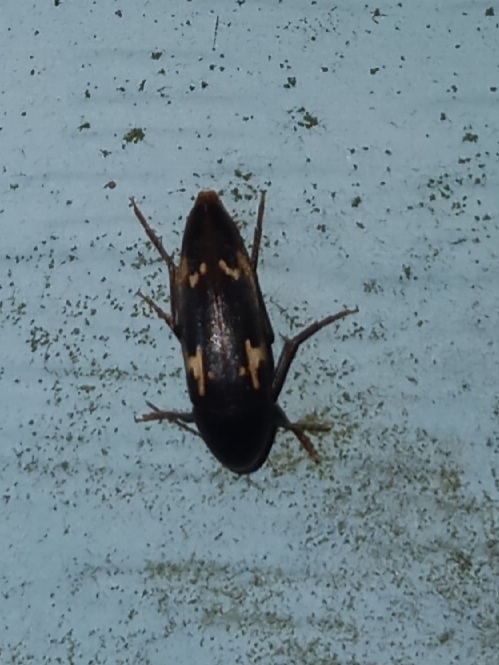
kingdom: Animalia
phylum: Arthropoda
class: Insecta
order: Coleoptera
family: Melandryidae
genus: Dircaea
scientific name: Dircaea liturata
